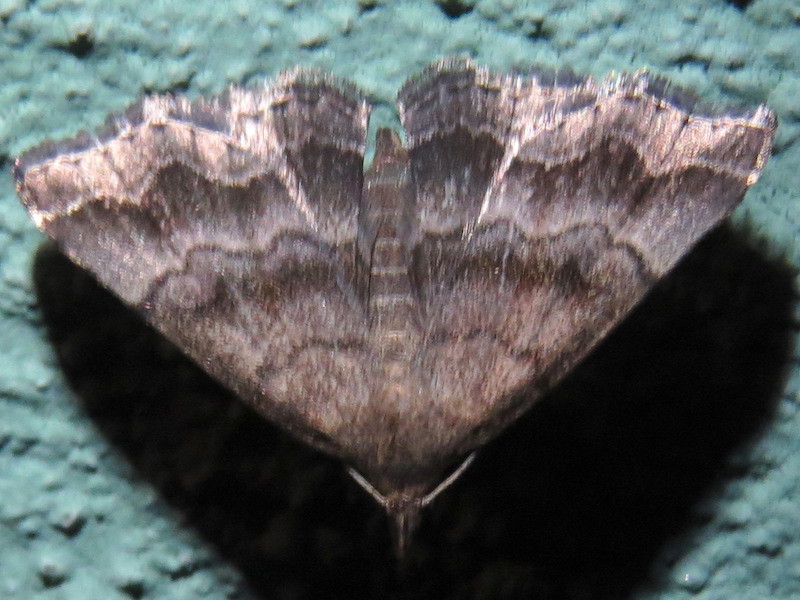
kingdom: Animalia
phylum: Arthropoda
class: Insecta
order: Lepidoptera
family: Erebidae
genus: Phalaenostola
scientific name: Phalaenostola larentioides
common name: Black-banded owlet
